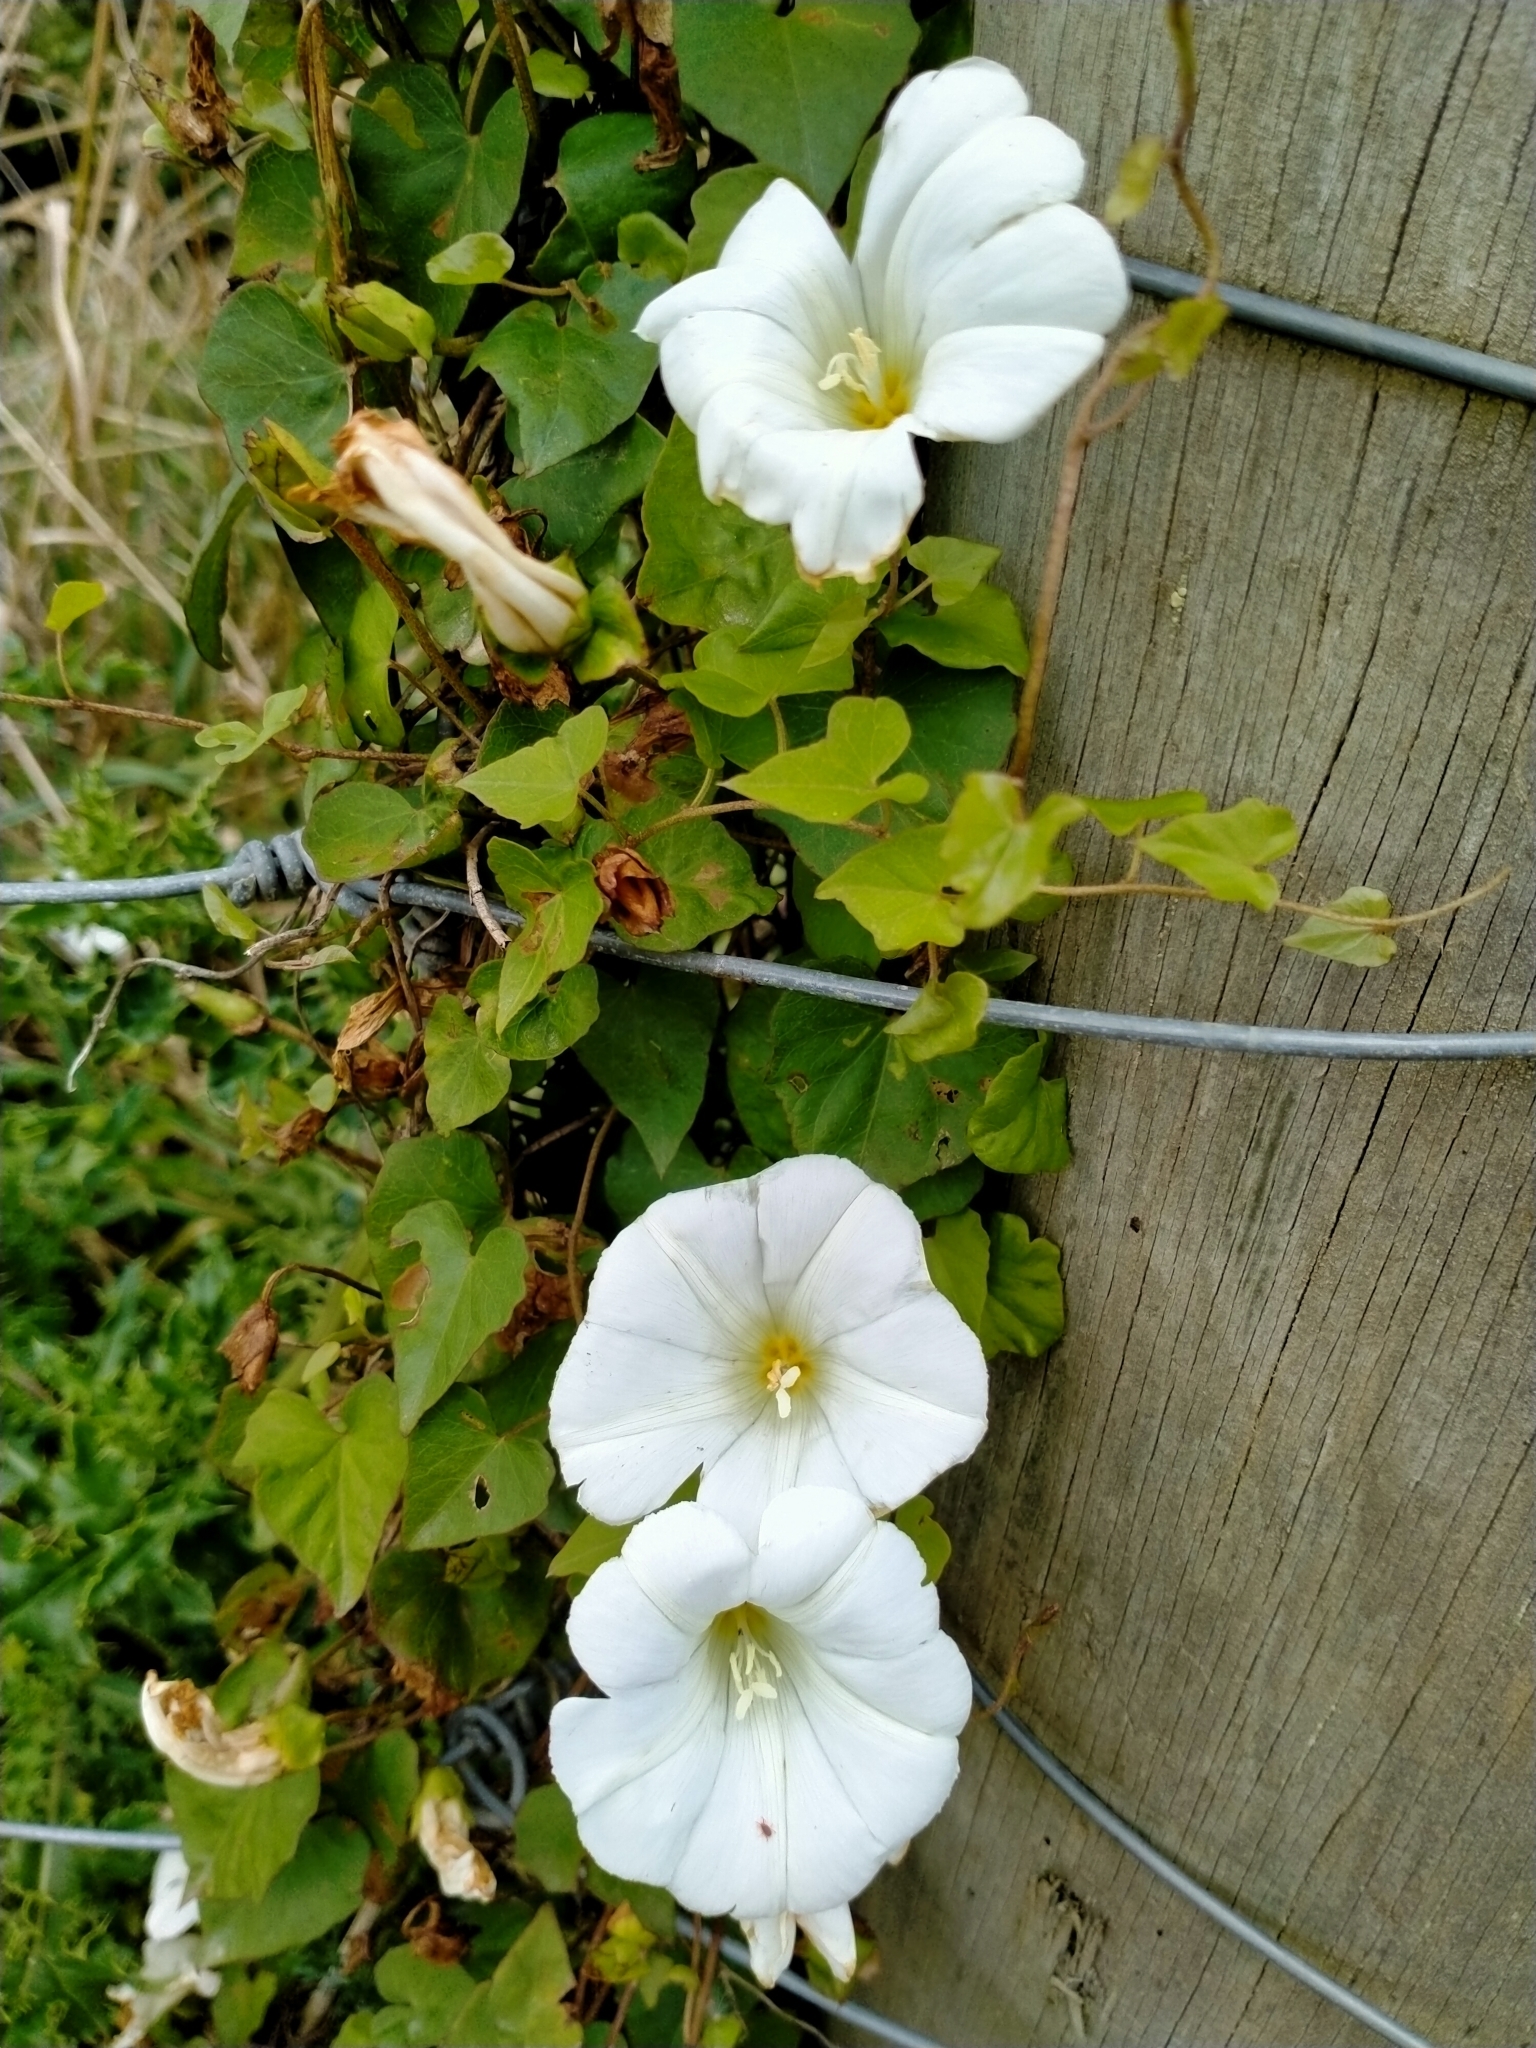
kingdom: Plantae
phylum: Tracheophyta
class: Magnoliopsida
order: Solanales
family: Convolvulaceae
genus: Calystegia
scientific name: Calystegia tuguriorum
